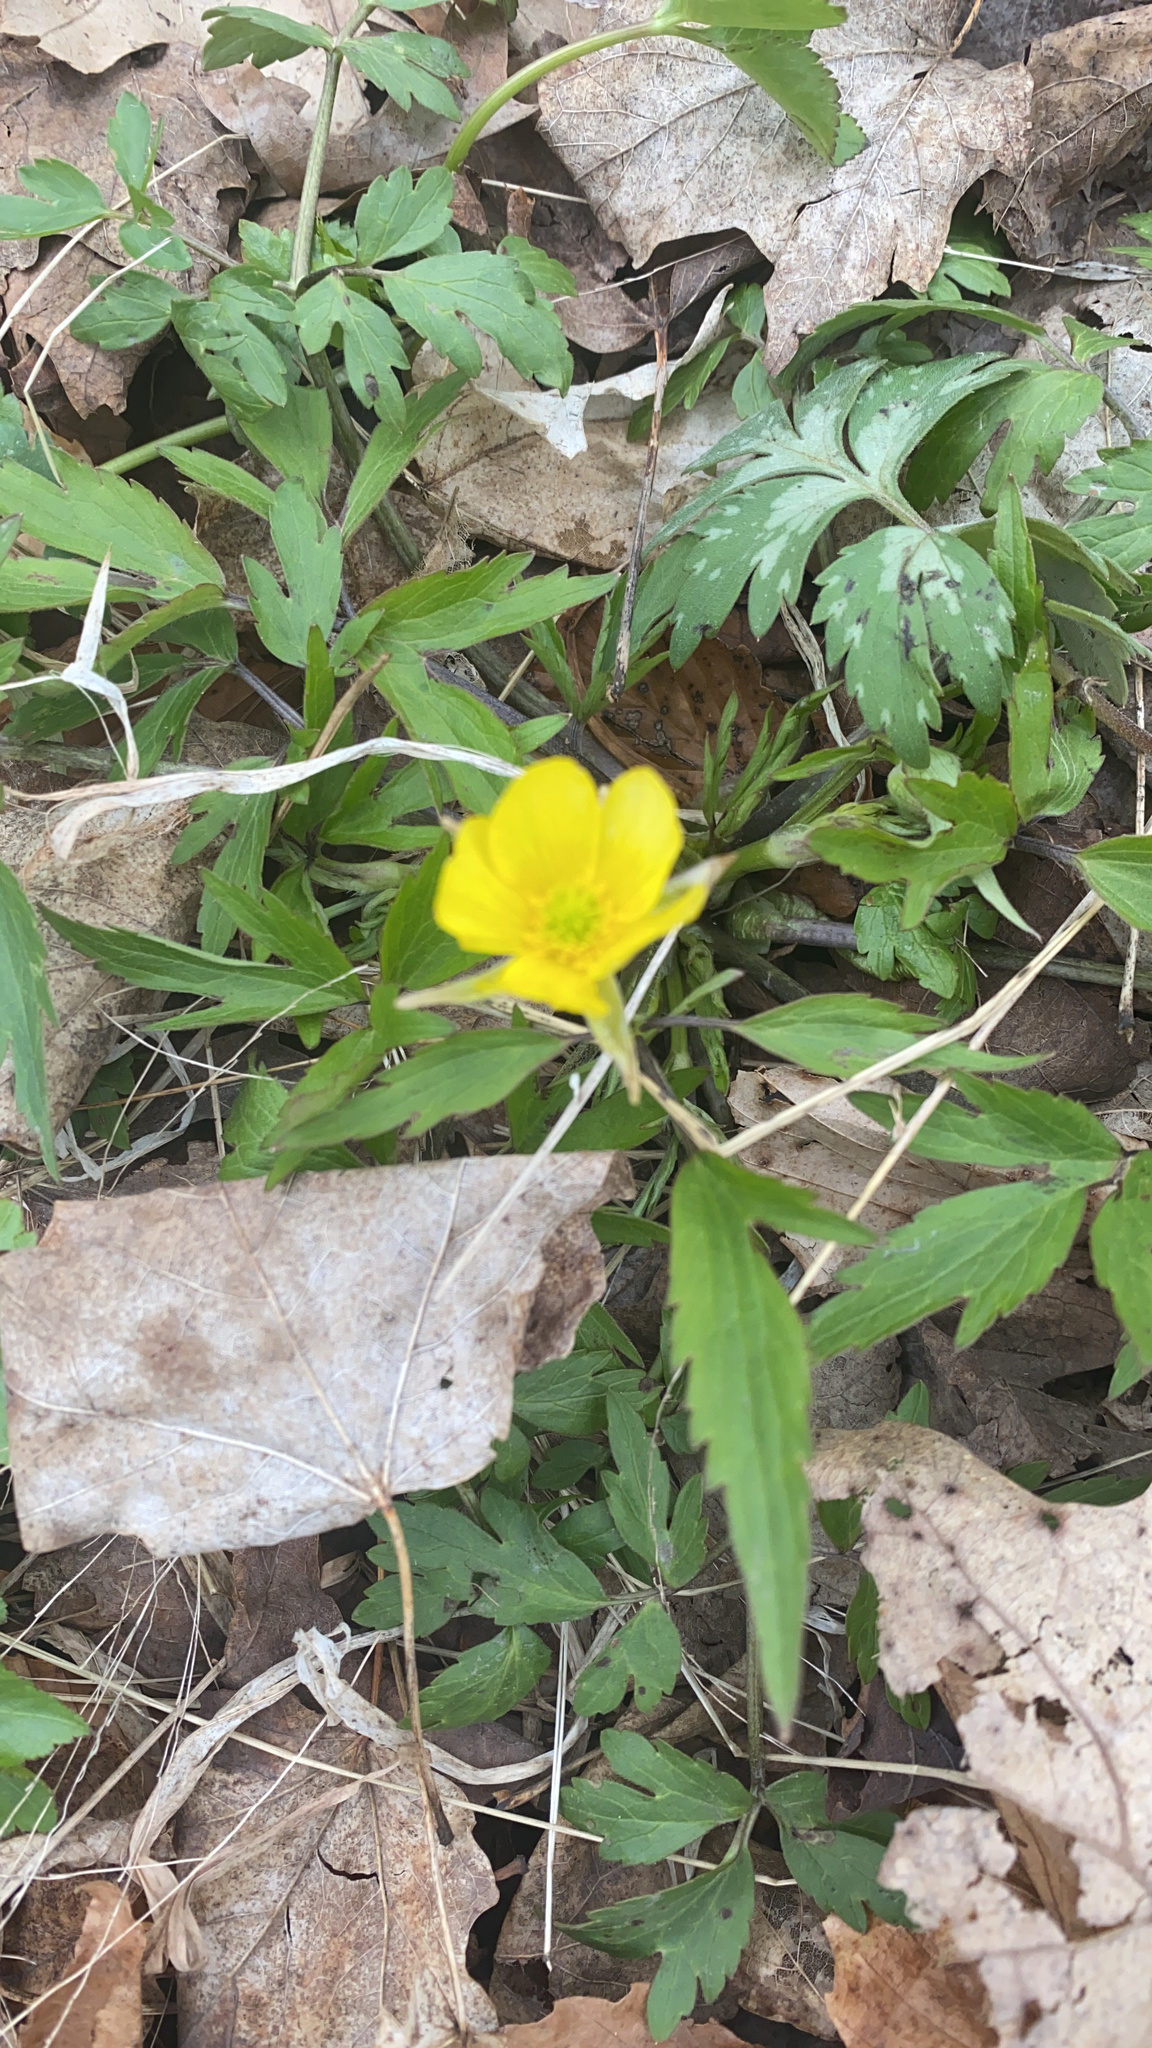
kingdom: Plantae
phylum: Tracheophyta
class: Magnoliopsida
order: Ranunculales
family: Ranunculaceae
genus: Ranunculus
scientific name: Ranunculus hispidus
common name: Bristly buttercup
